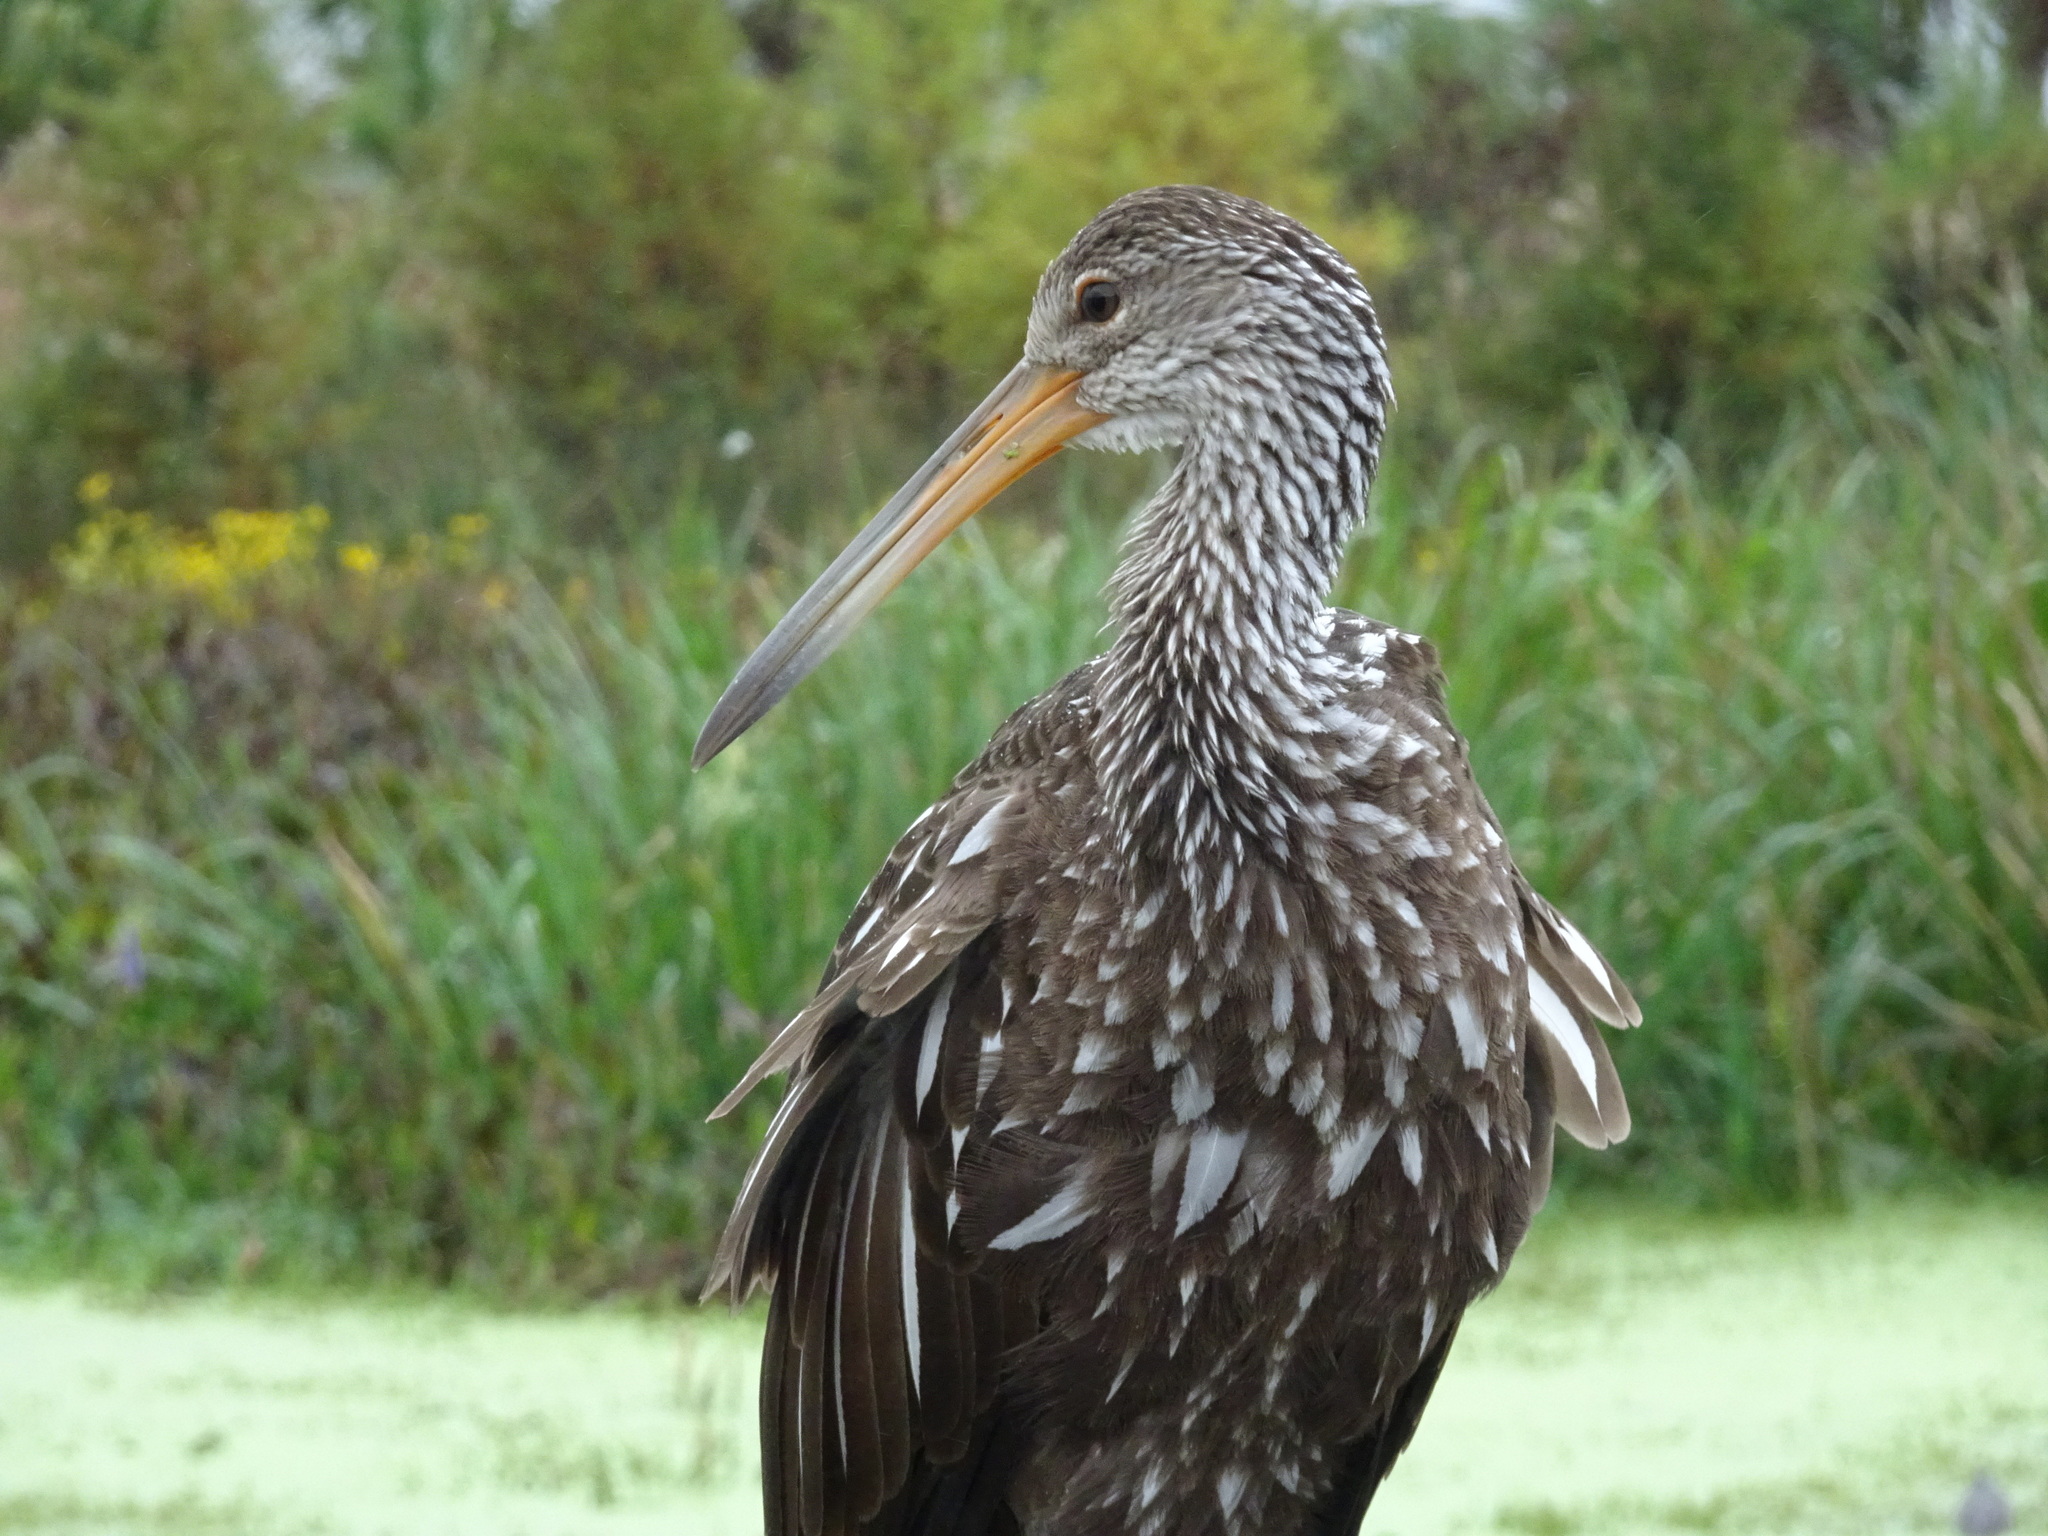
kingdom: Animalia
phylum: Chordata
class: Aves
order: Gruiformes
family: Aramidae
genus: Aramus
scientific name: Aramus guarauna
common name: Limpkin
